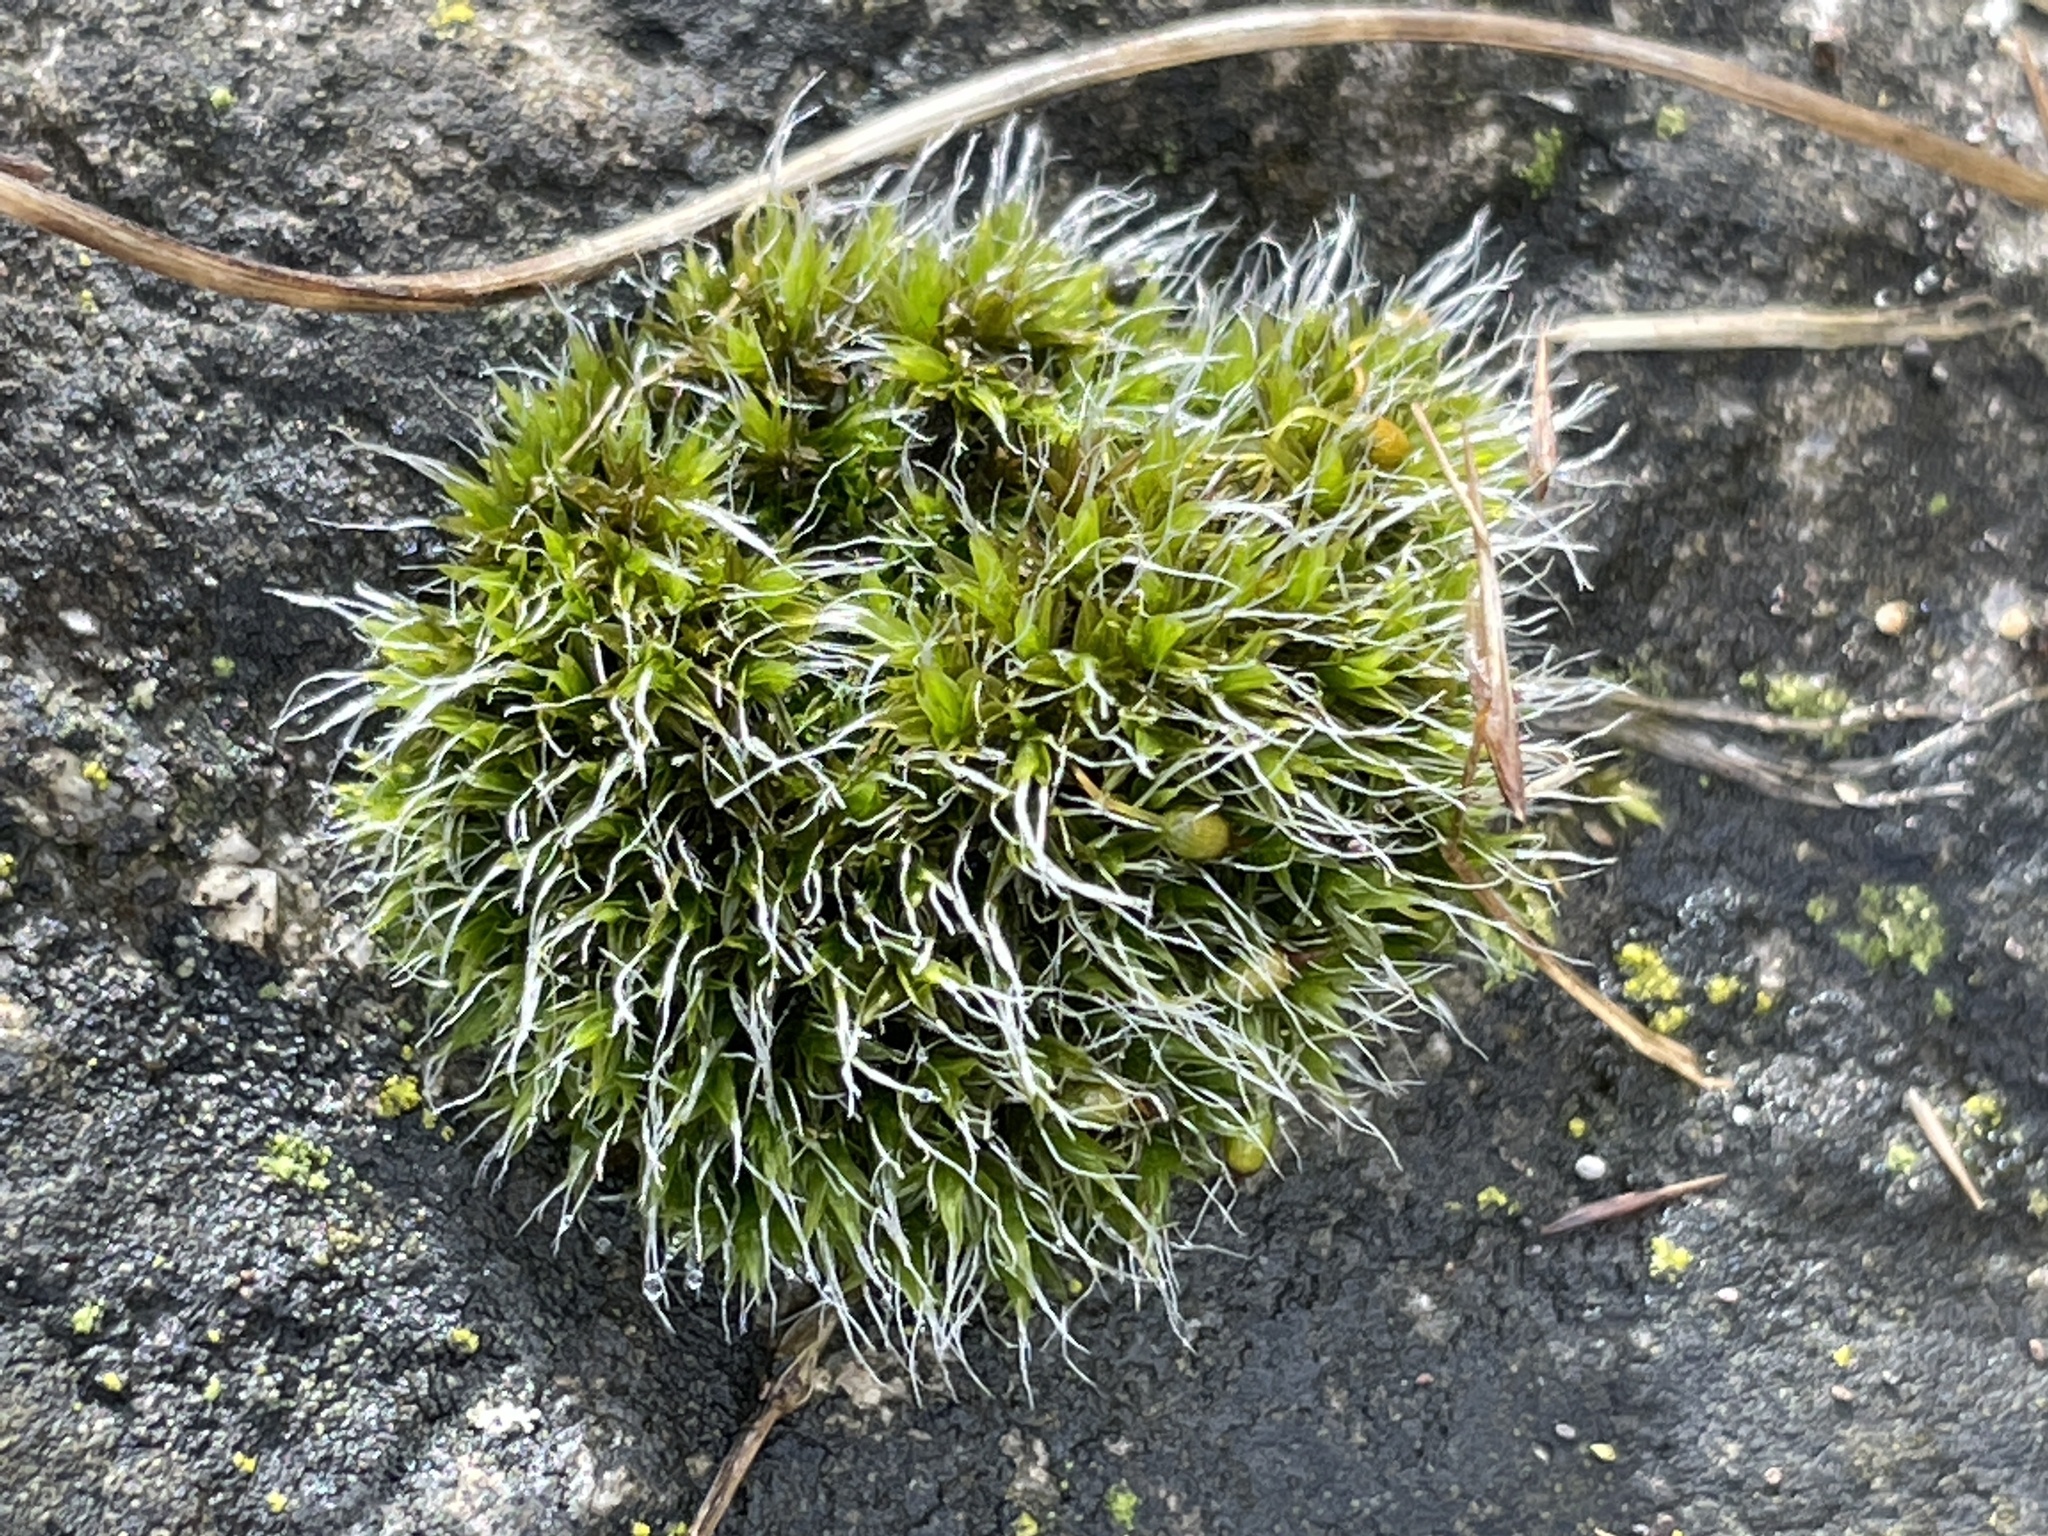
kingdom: Plantae
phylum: Bryophyta
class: Bryopsida
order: Grimmiales
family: Grimmiaceae
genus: Grimmia
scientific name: Grimmia pulvinata
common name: Grey-cushioned grimmia
